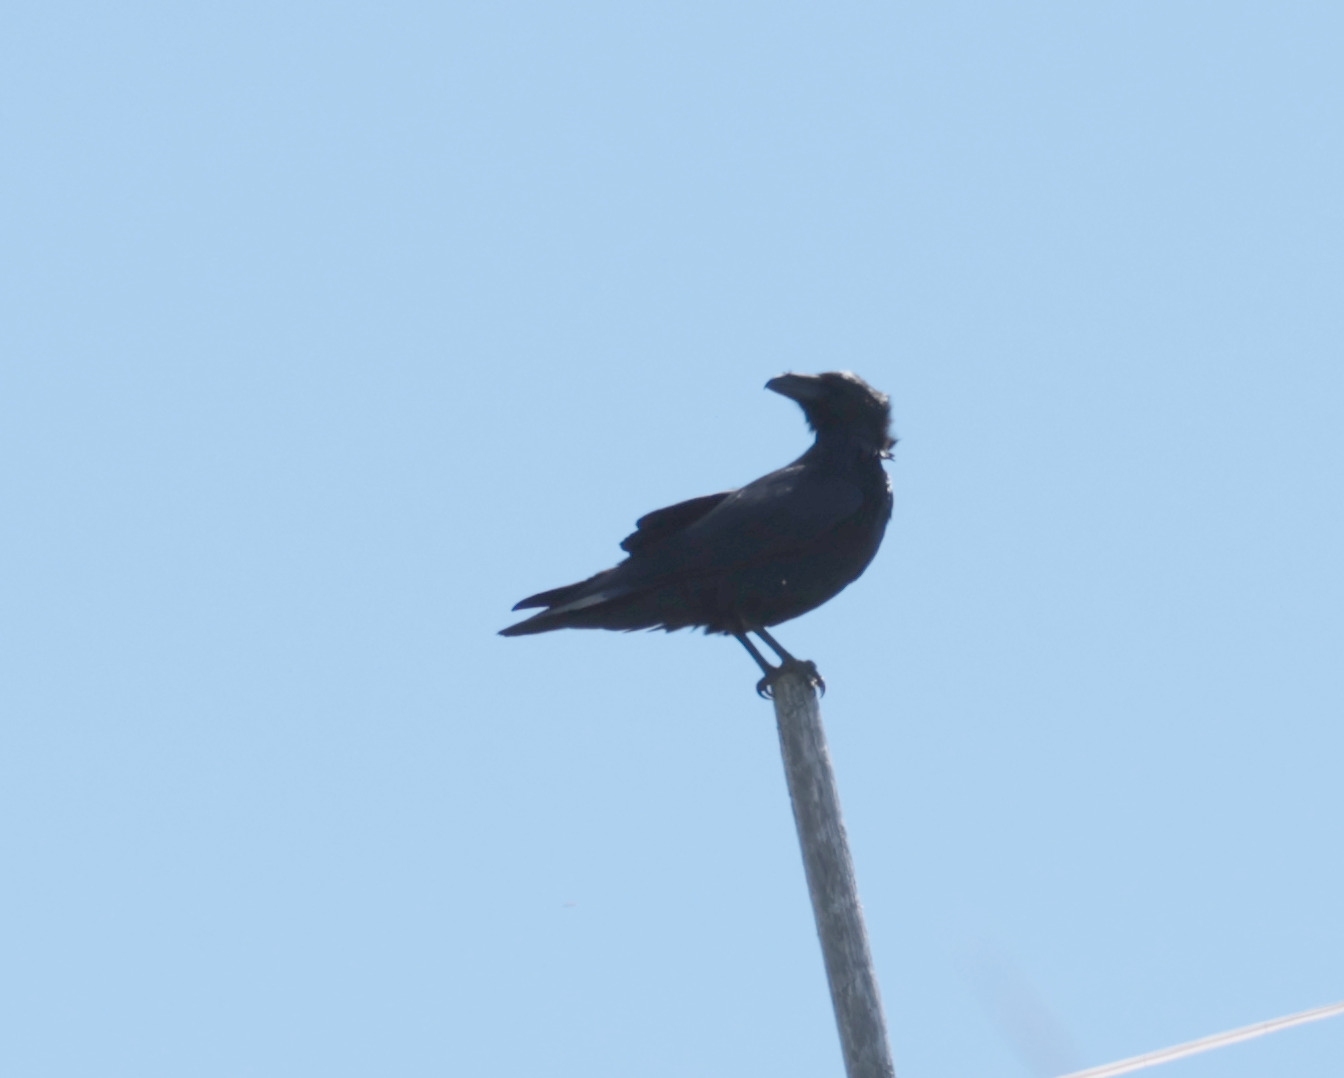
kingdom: Animalia
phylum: Chordata
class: Aves
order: Passeriformes
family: Corvidae
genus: Corvus
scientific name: Corvus corax
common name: Common raven
